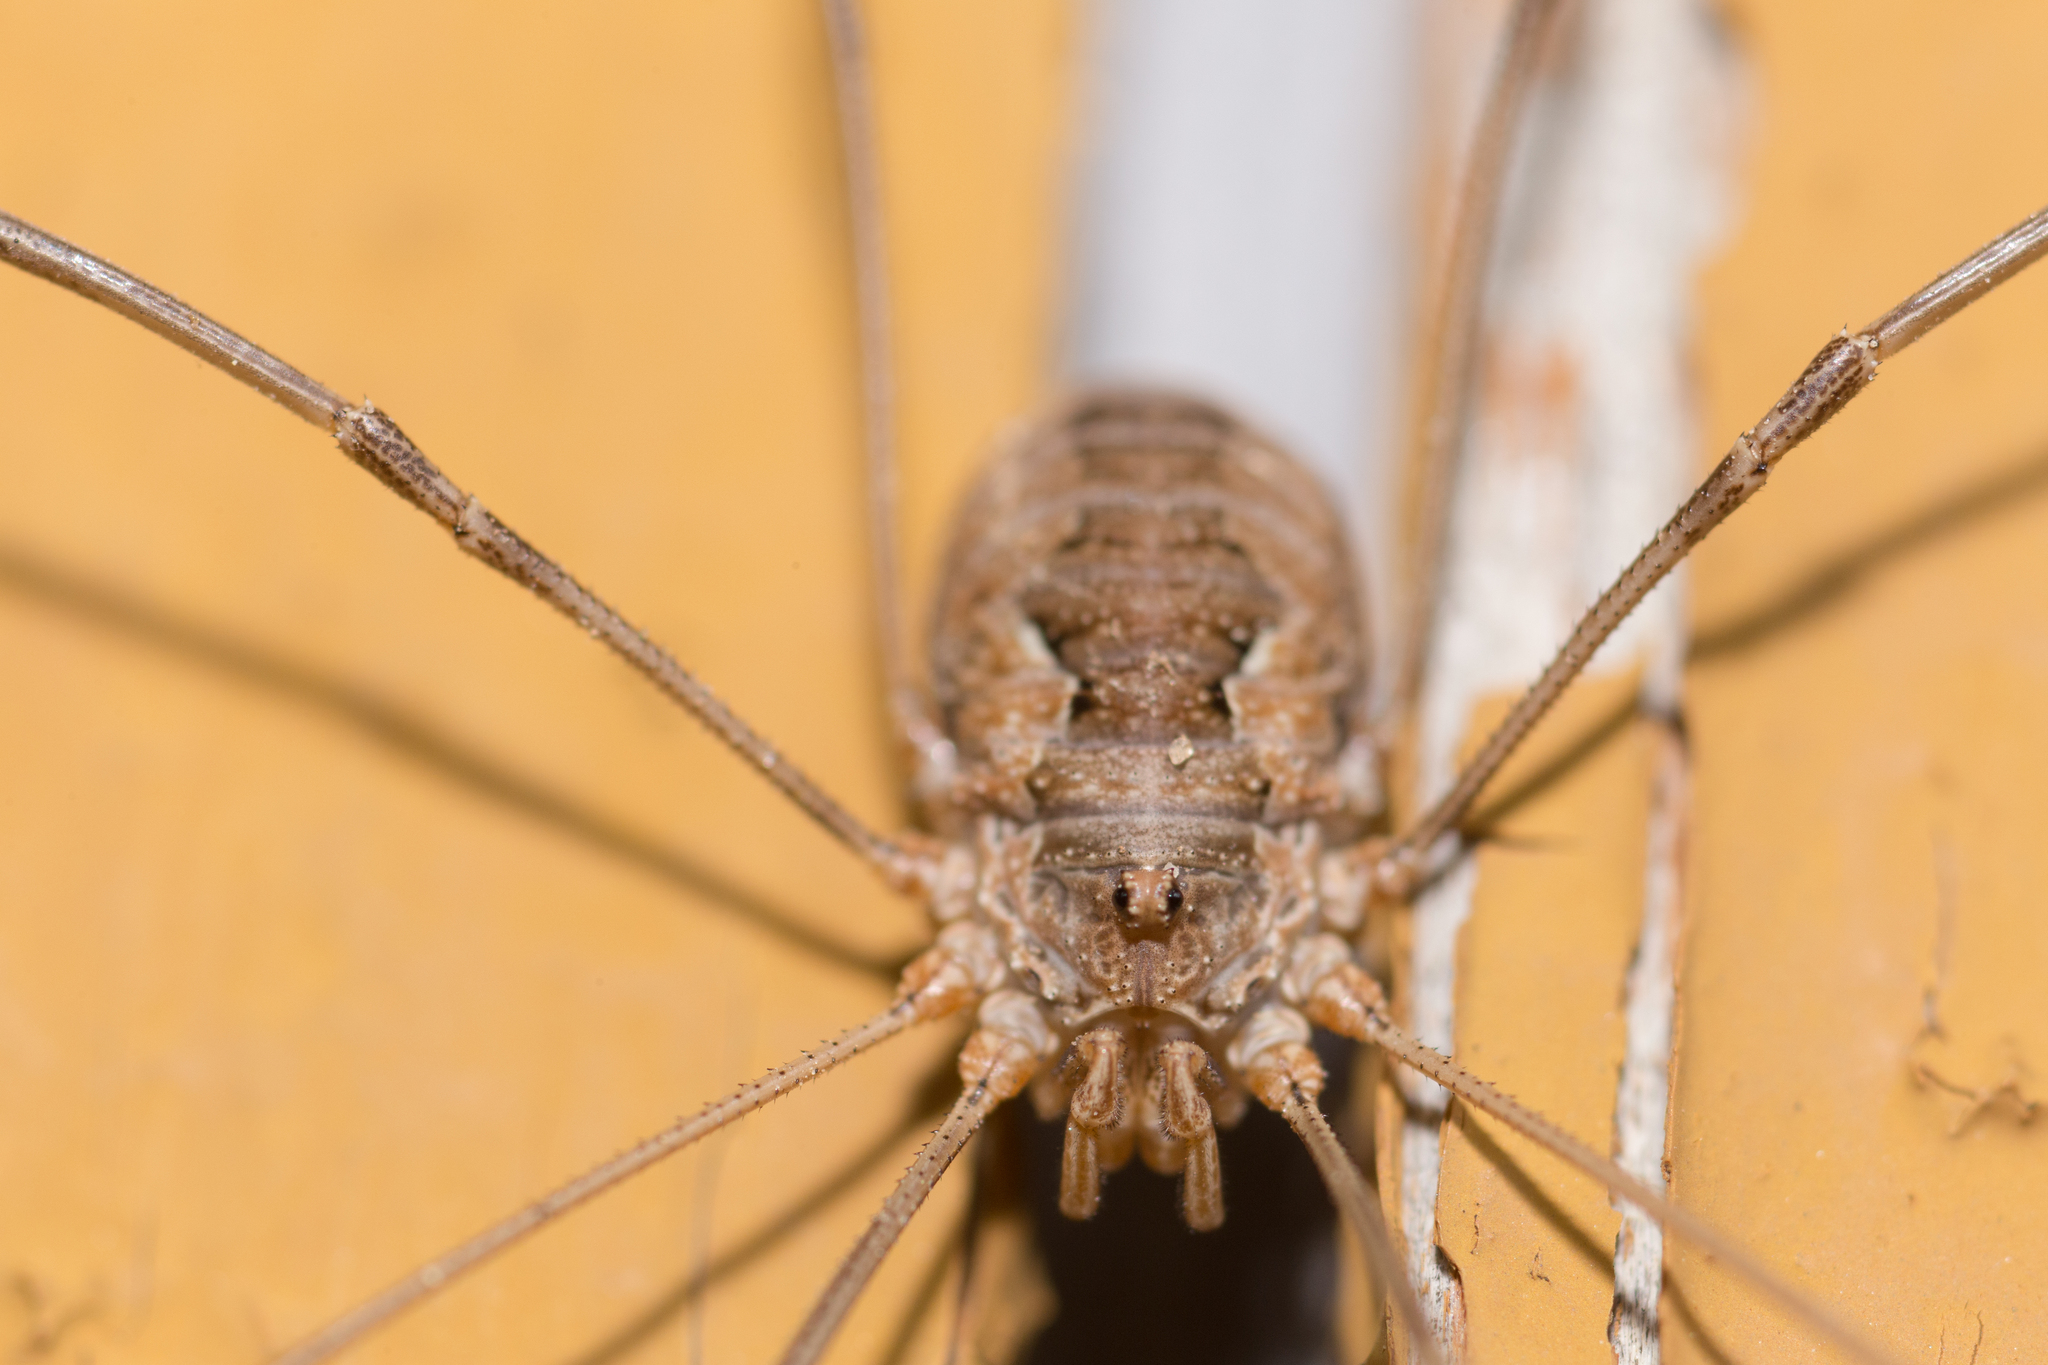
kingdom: Animalia
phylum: Arthropoda
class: Arachnida
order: Opiliones
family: Phalangiidae
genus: Phalangium
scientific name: Phalangium opilio
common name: Daddy longleg
